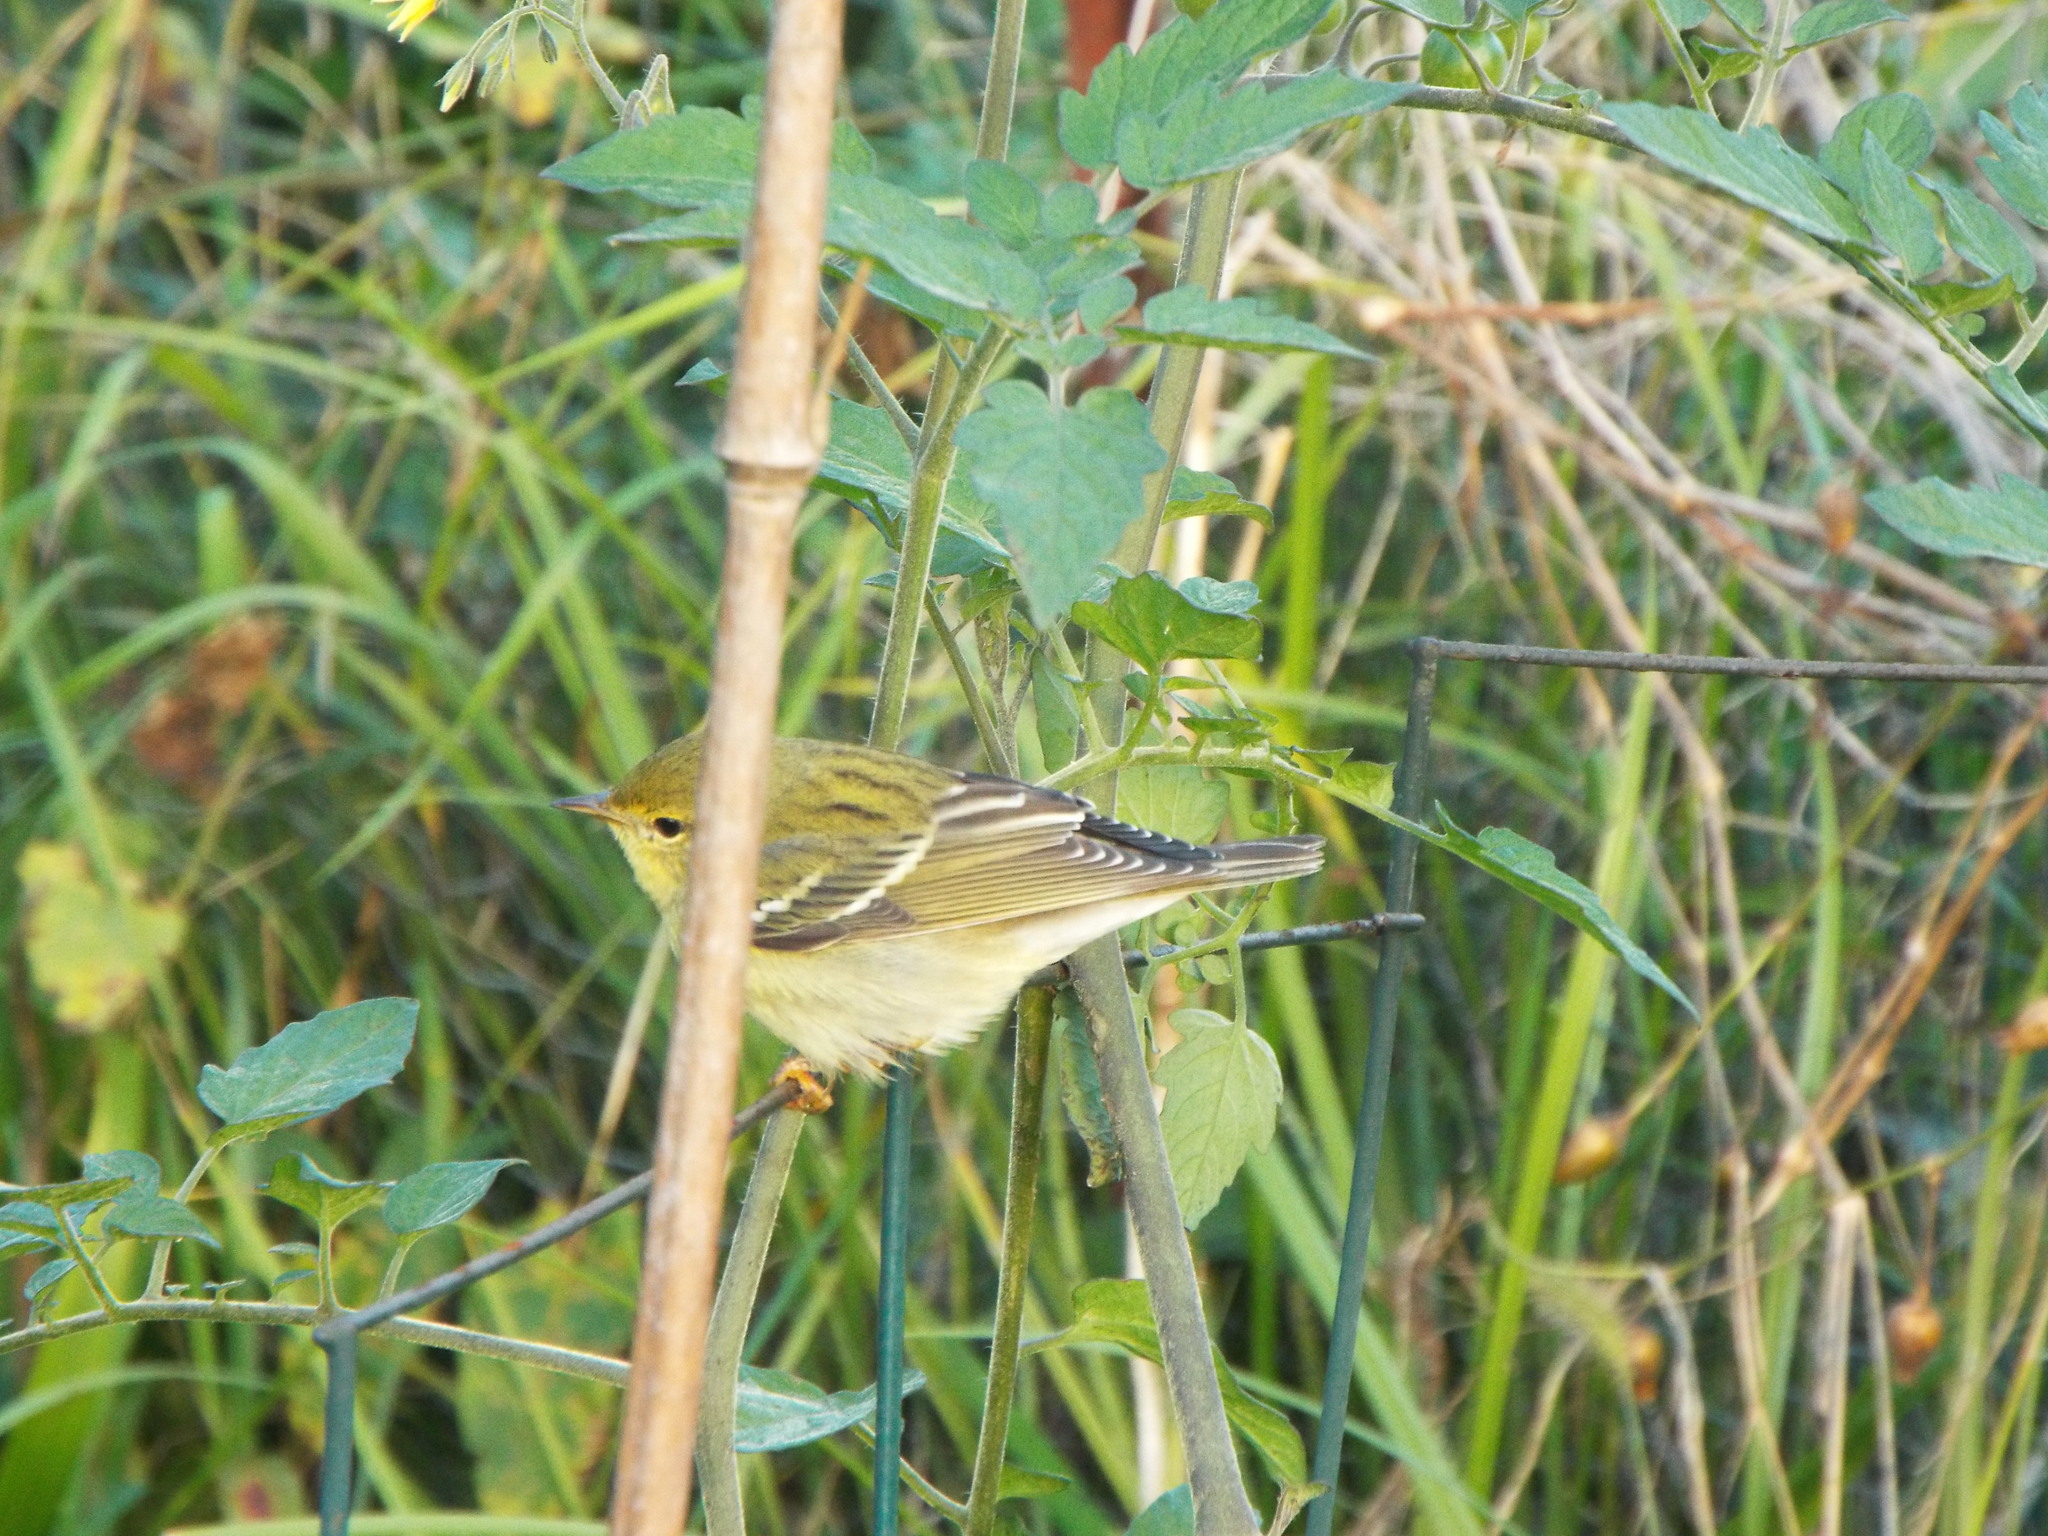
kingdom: Animalia
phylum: Chordata
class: Aves
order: Passeriformes
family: Parulidae
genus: Setophaga
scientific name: Setophaga striata
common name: Blackpoll warbler
